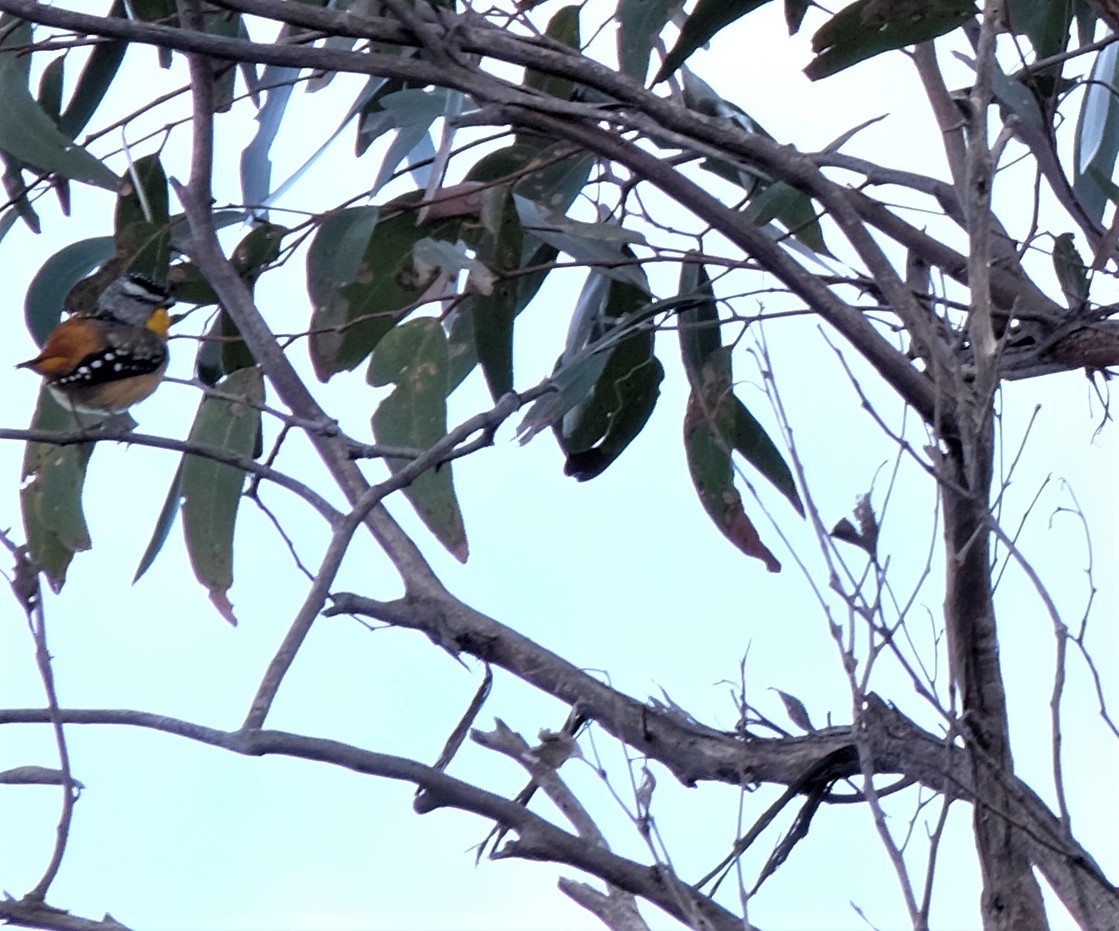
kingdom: Animalia
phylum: Chordata
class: Aves
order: Passeriformes
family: Pardalotidae
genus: Pardalotus
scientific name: Pardalotus punctatus
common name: Spotted pardalote
